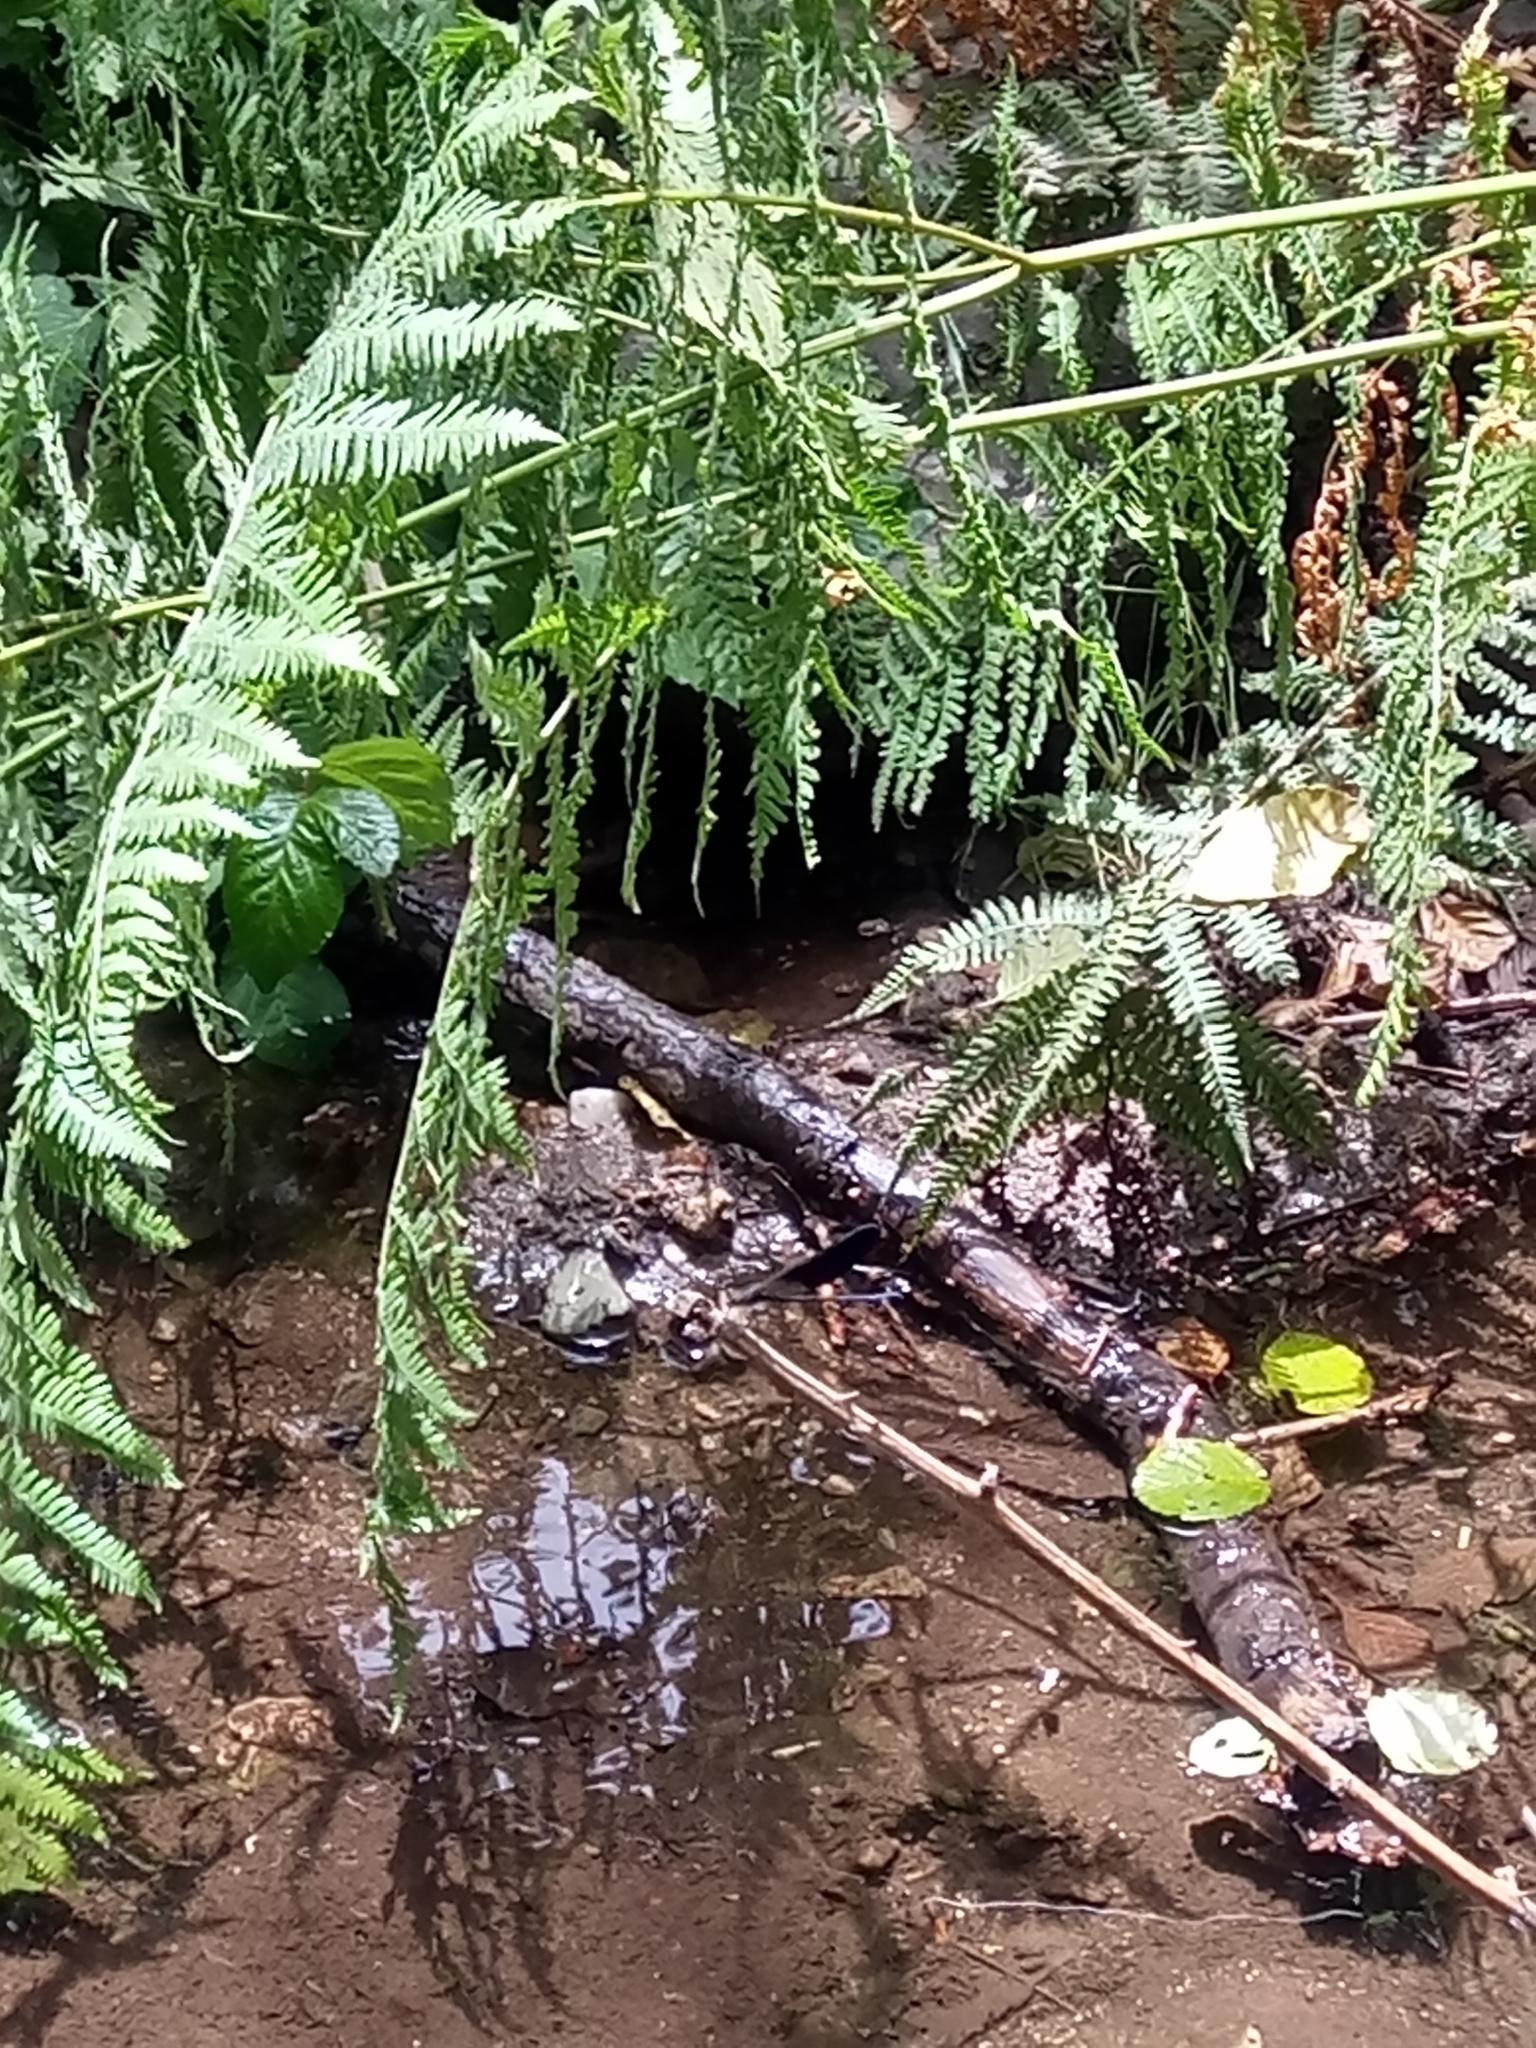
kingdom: Animalia
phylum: Arthropoda
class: Insecta
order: Odonata
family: Calopterygidae
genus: Calopteryx
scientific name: Calopteryx haemorrhoidalis
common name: Copper demoiselle
